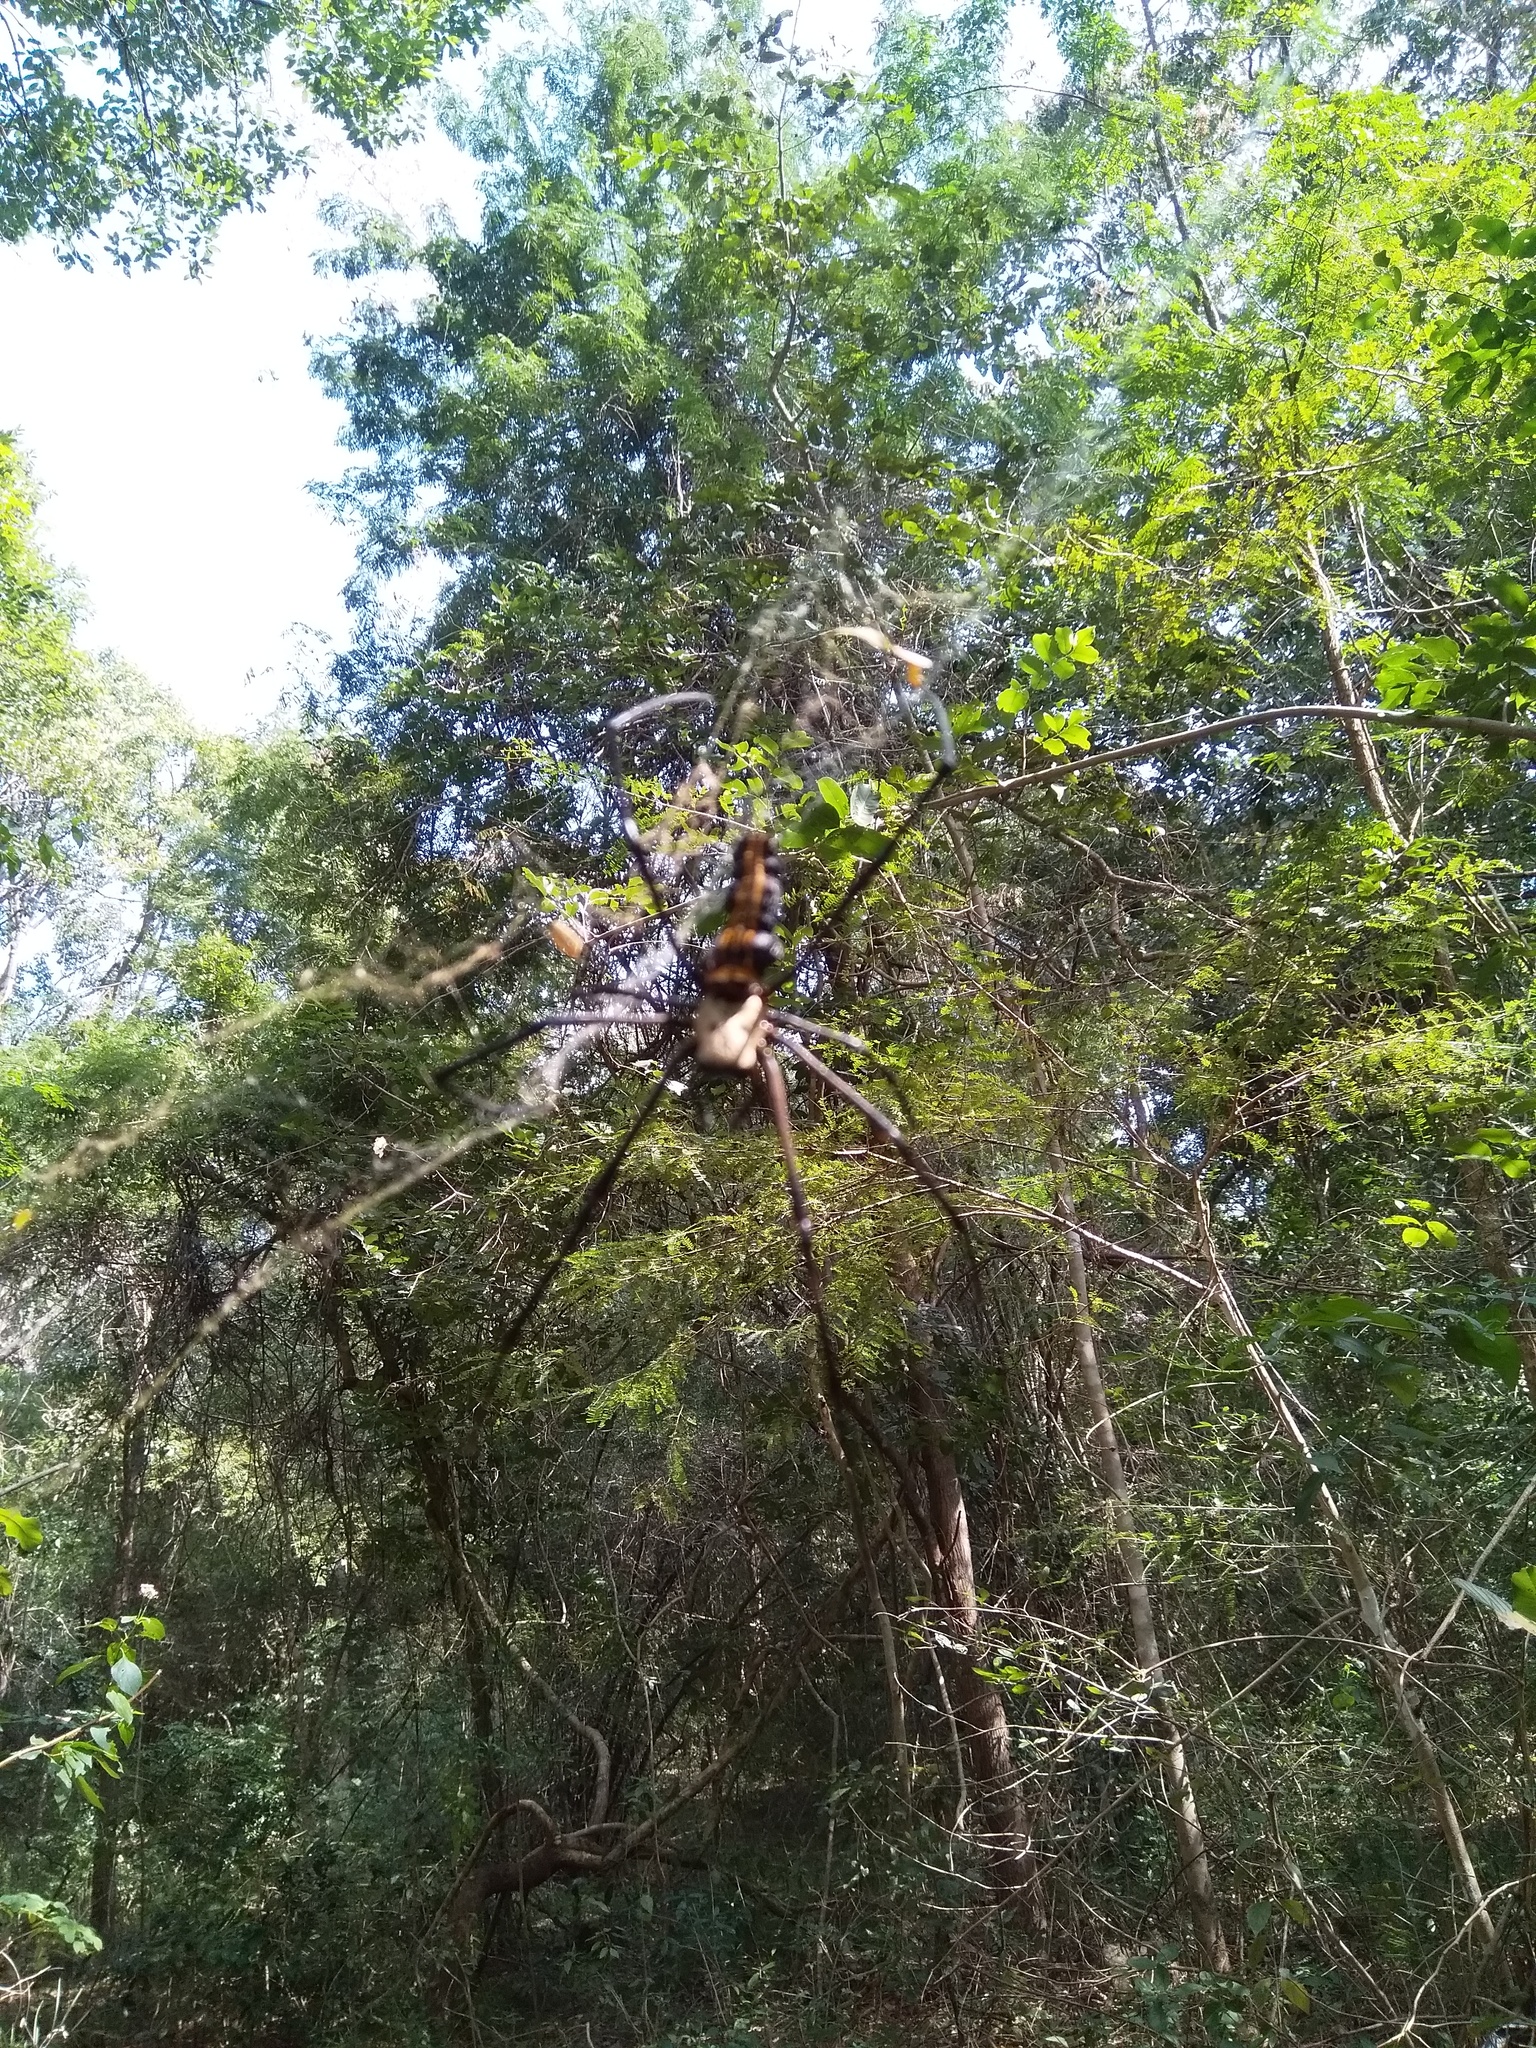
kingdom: Animalia
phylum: Arthropoda
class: Arachnida
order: Araneae
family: Araneidae
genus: Nephila
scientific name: Nephila pilipes
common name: Giant golden orb weaver
